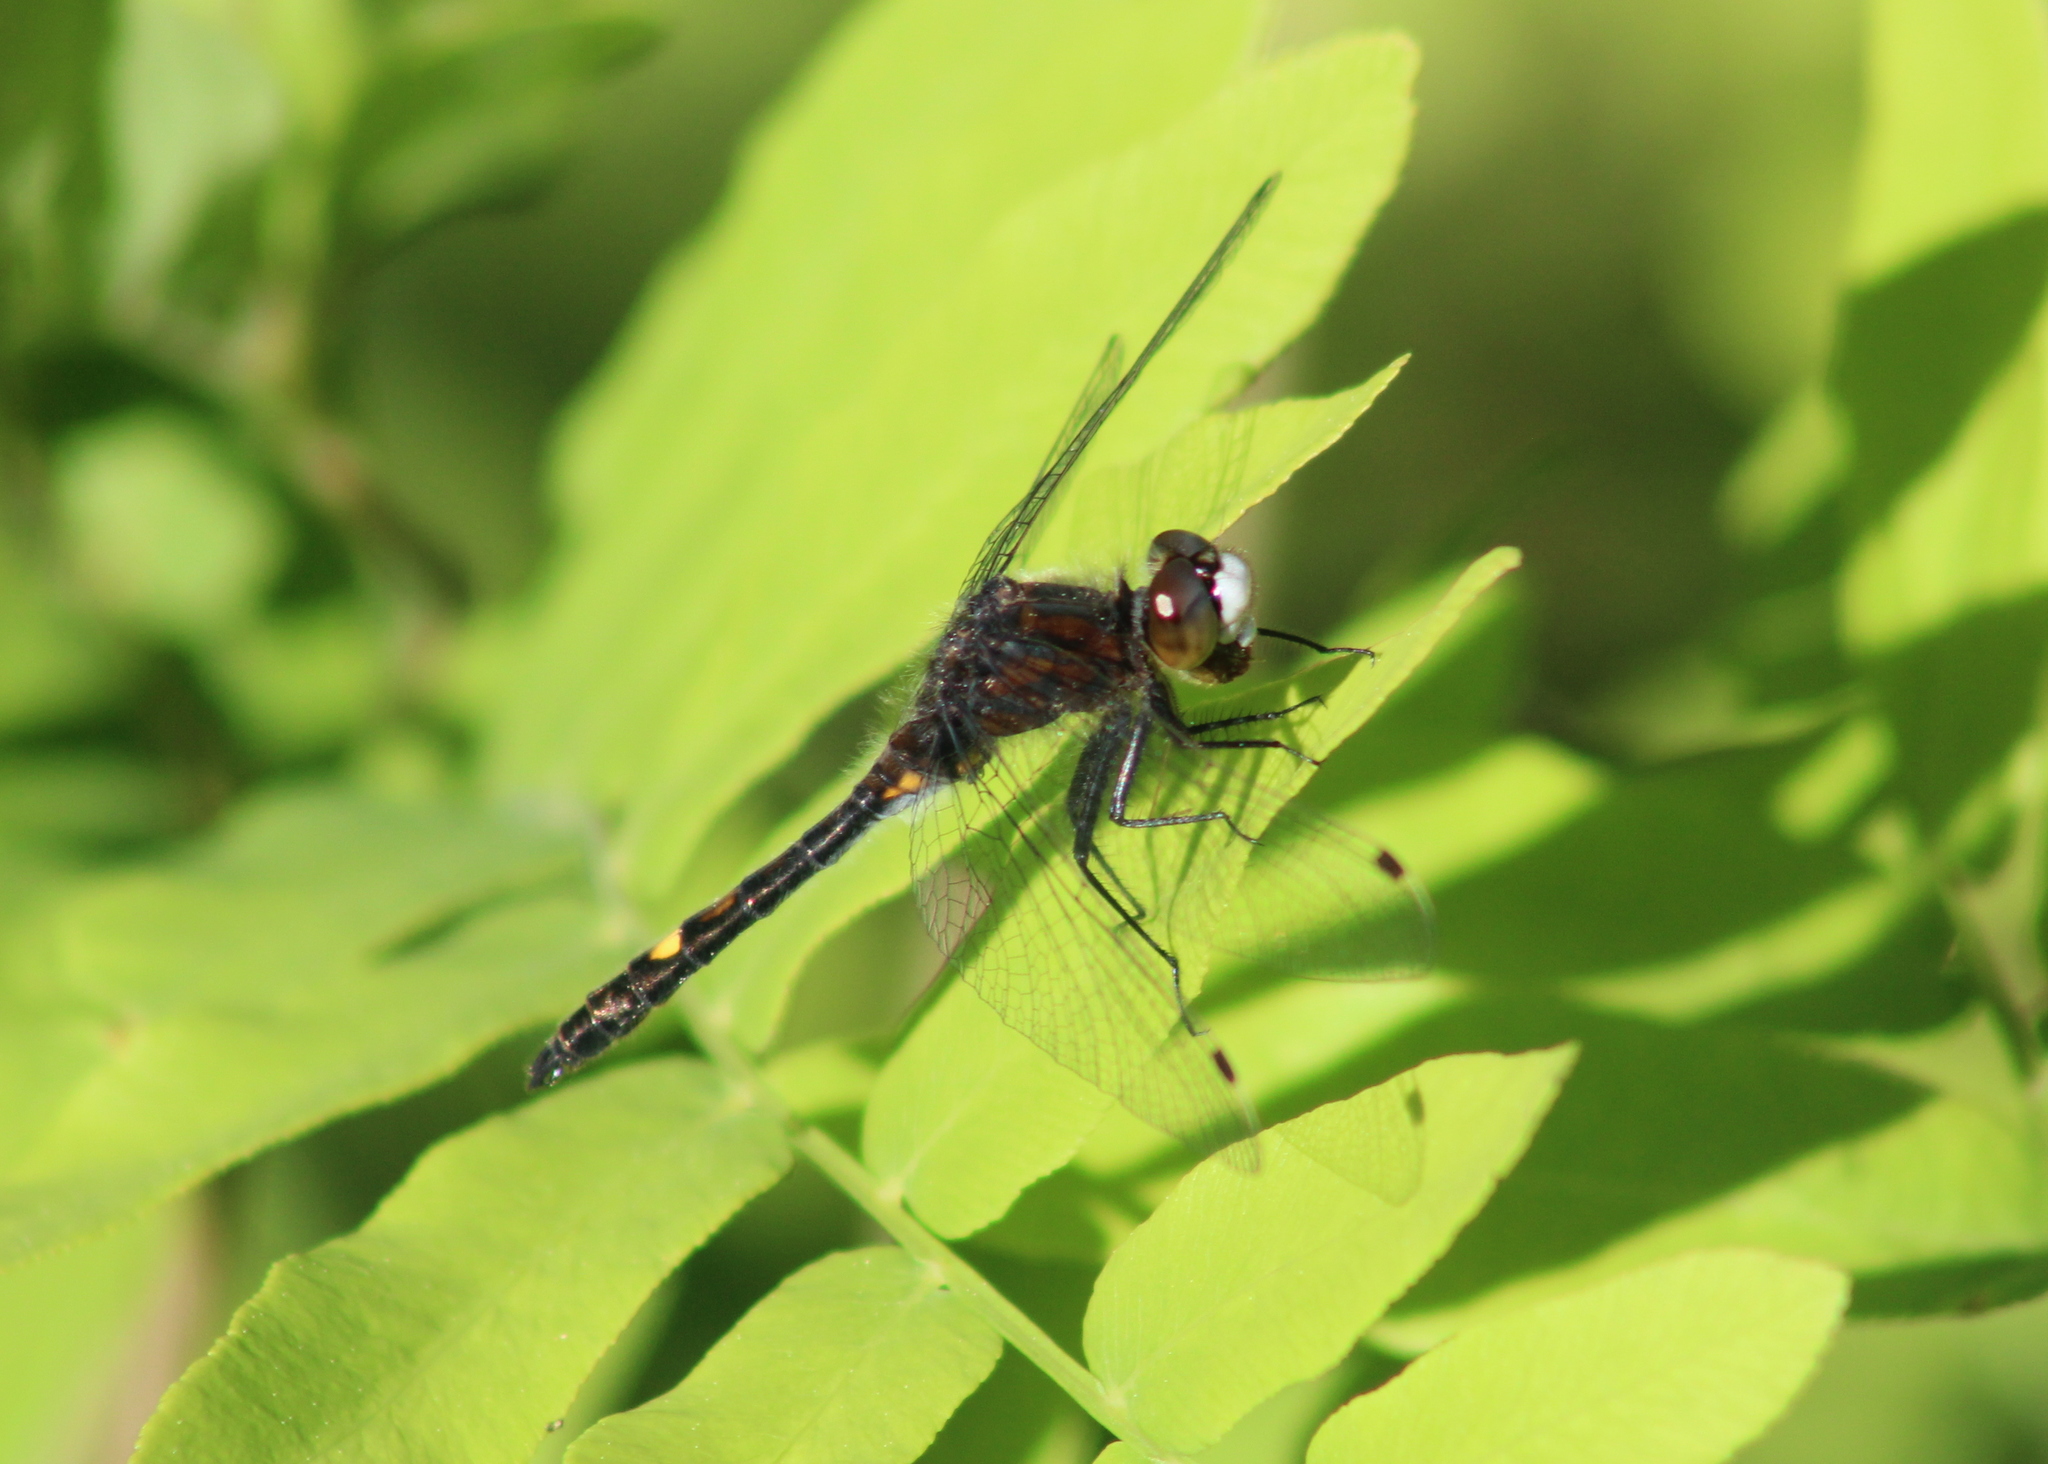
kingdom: Animalia
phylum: Arthropoda
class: Insecta
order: Odonata
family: Libellulidae
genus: Leucorrhinia
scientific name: Leucorrhinia intacta
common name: Dot-tailed whiteface
